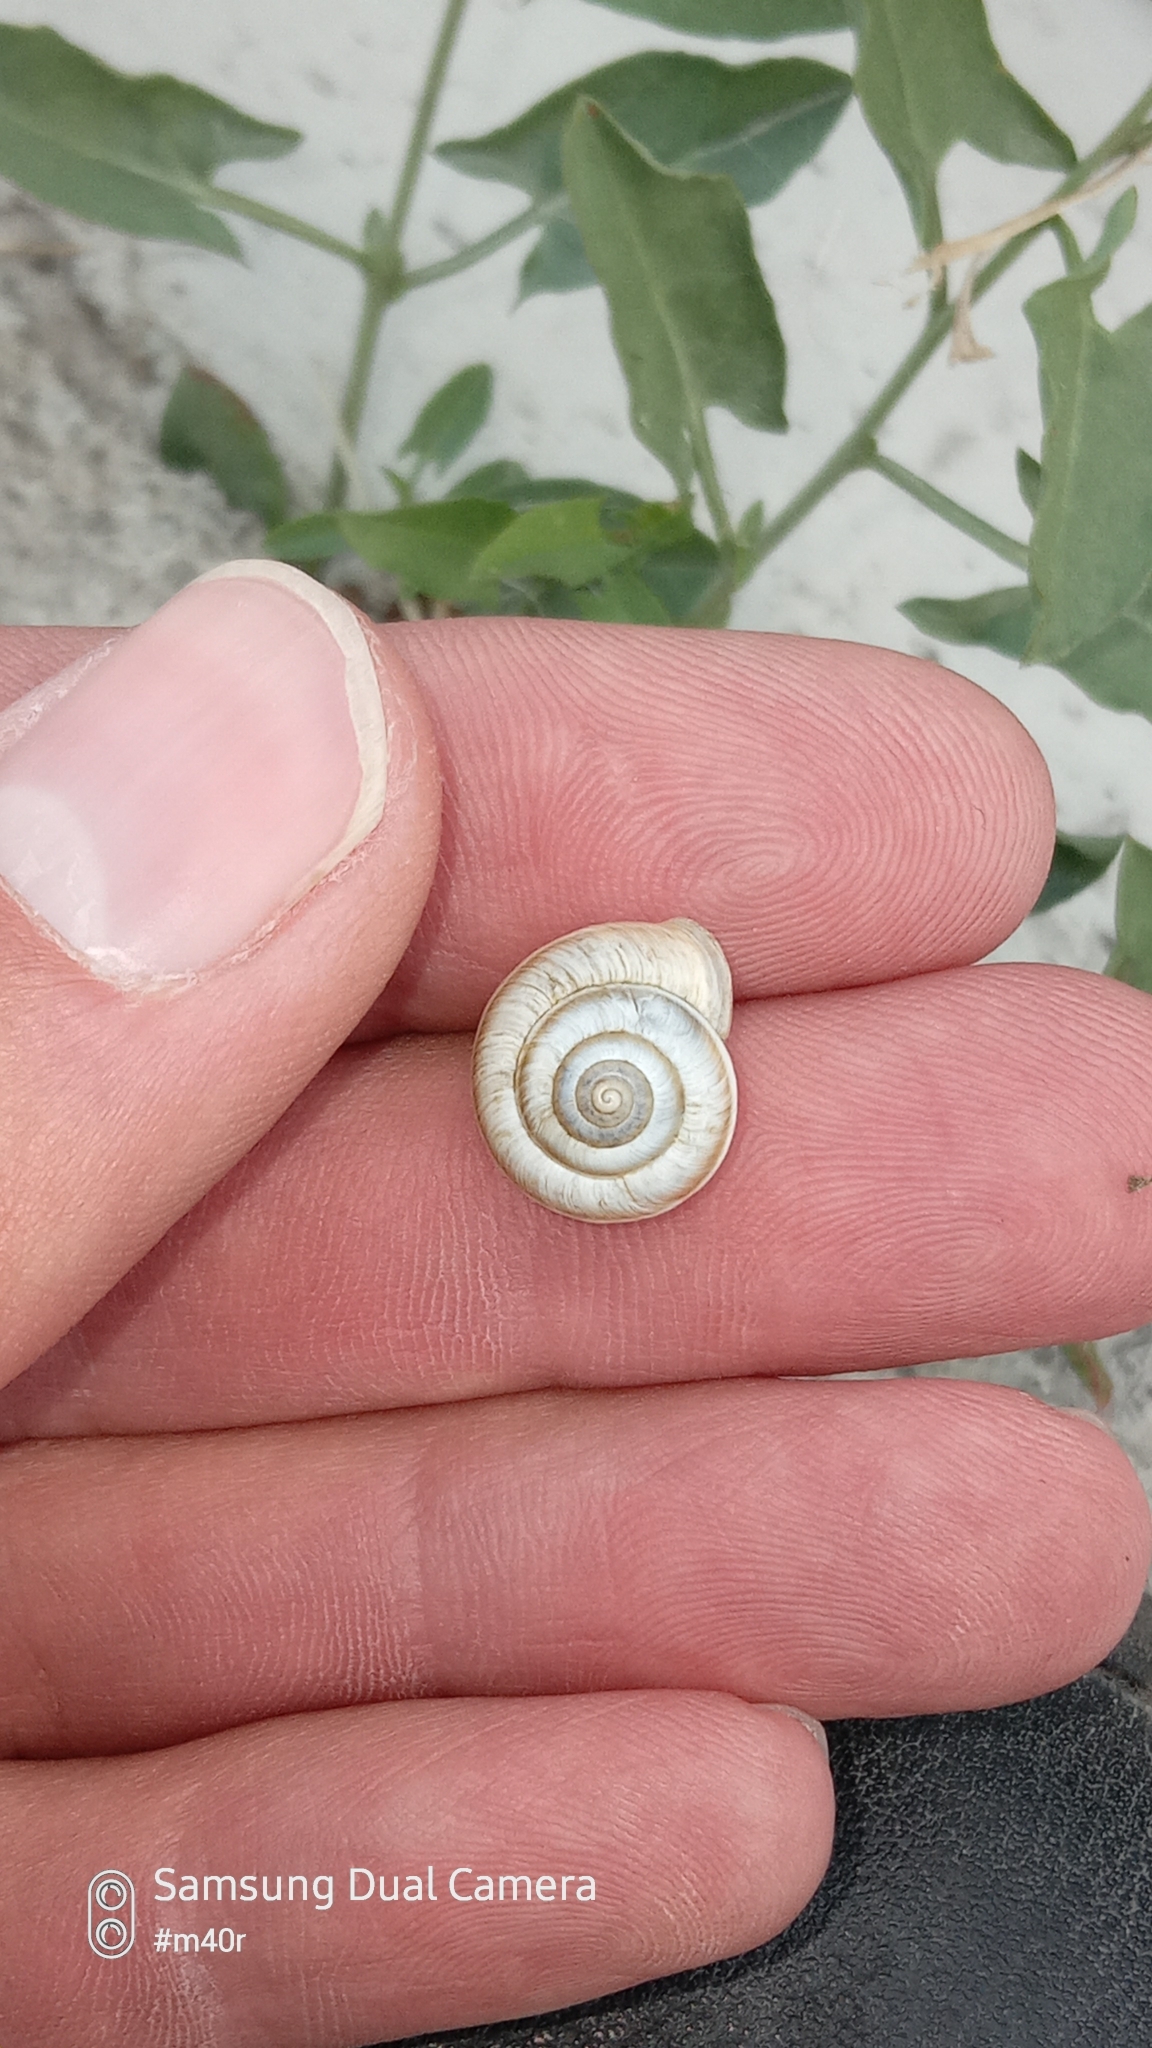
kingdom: Animalia
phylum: Mollusca
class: Gastropoda
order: Stylommatophora
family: Hygromiidae
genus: Harmozica
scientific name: Harmozica ravergiensis
